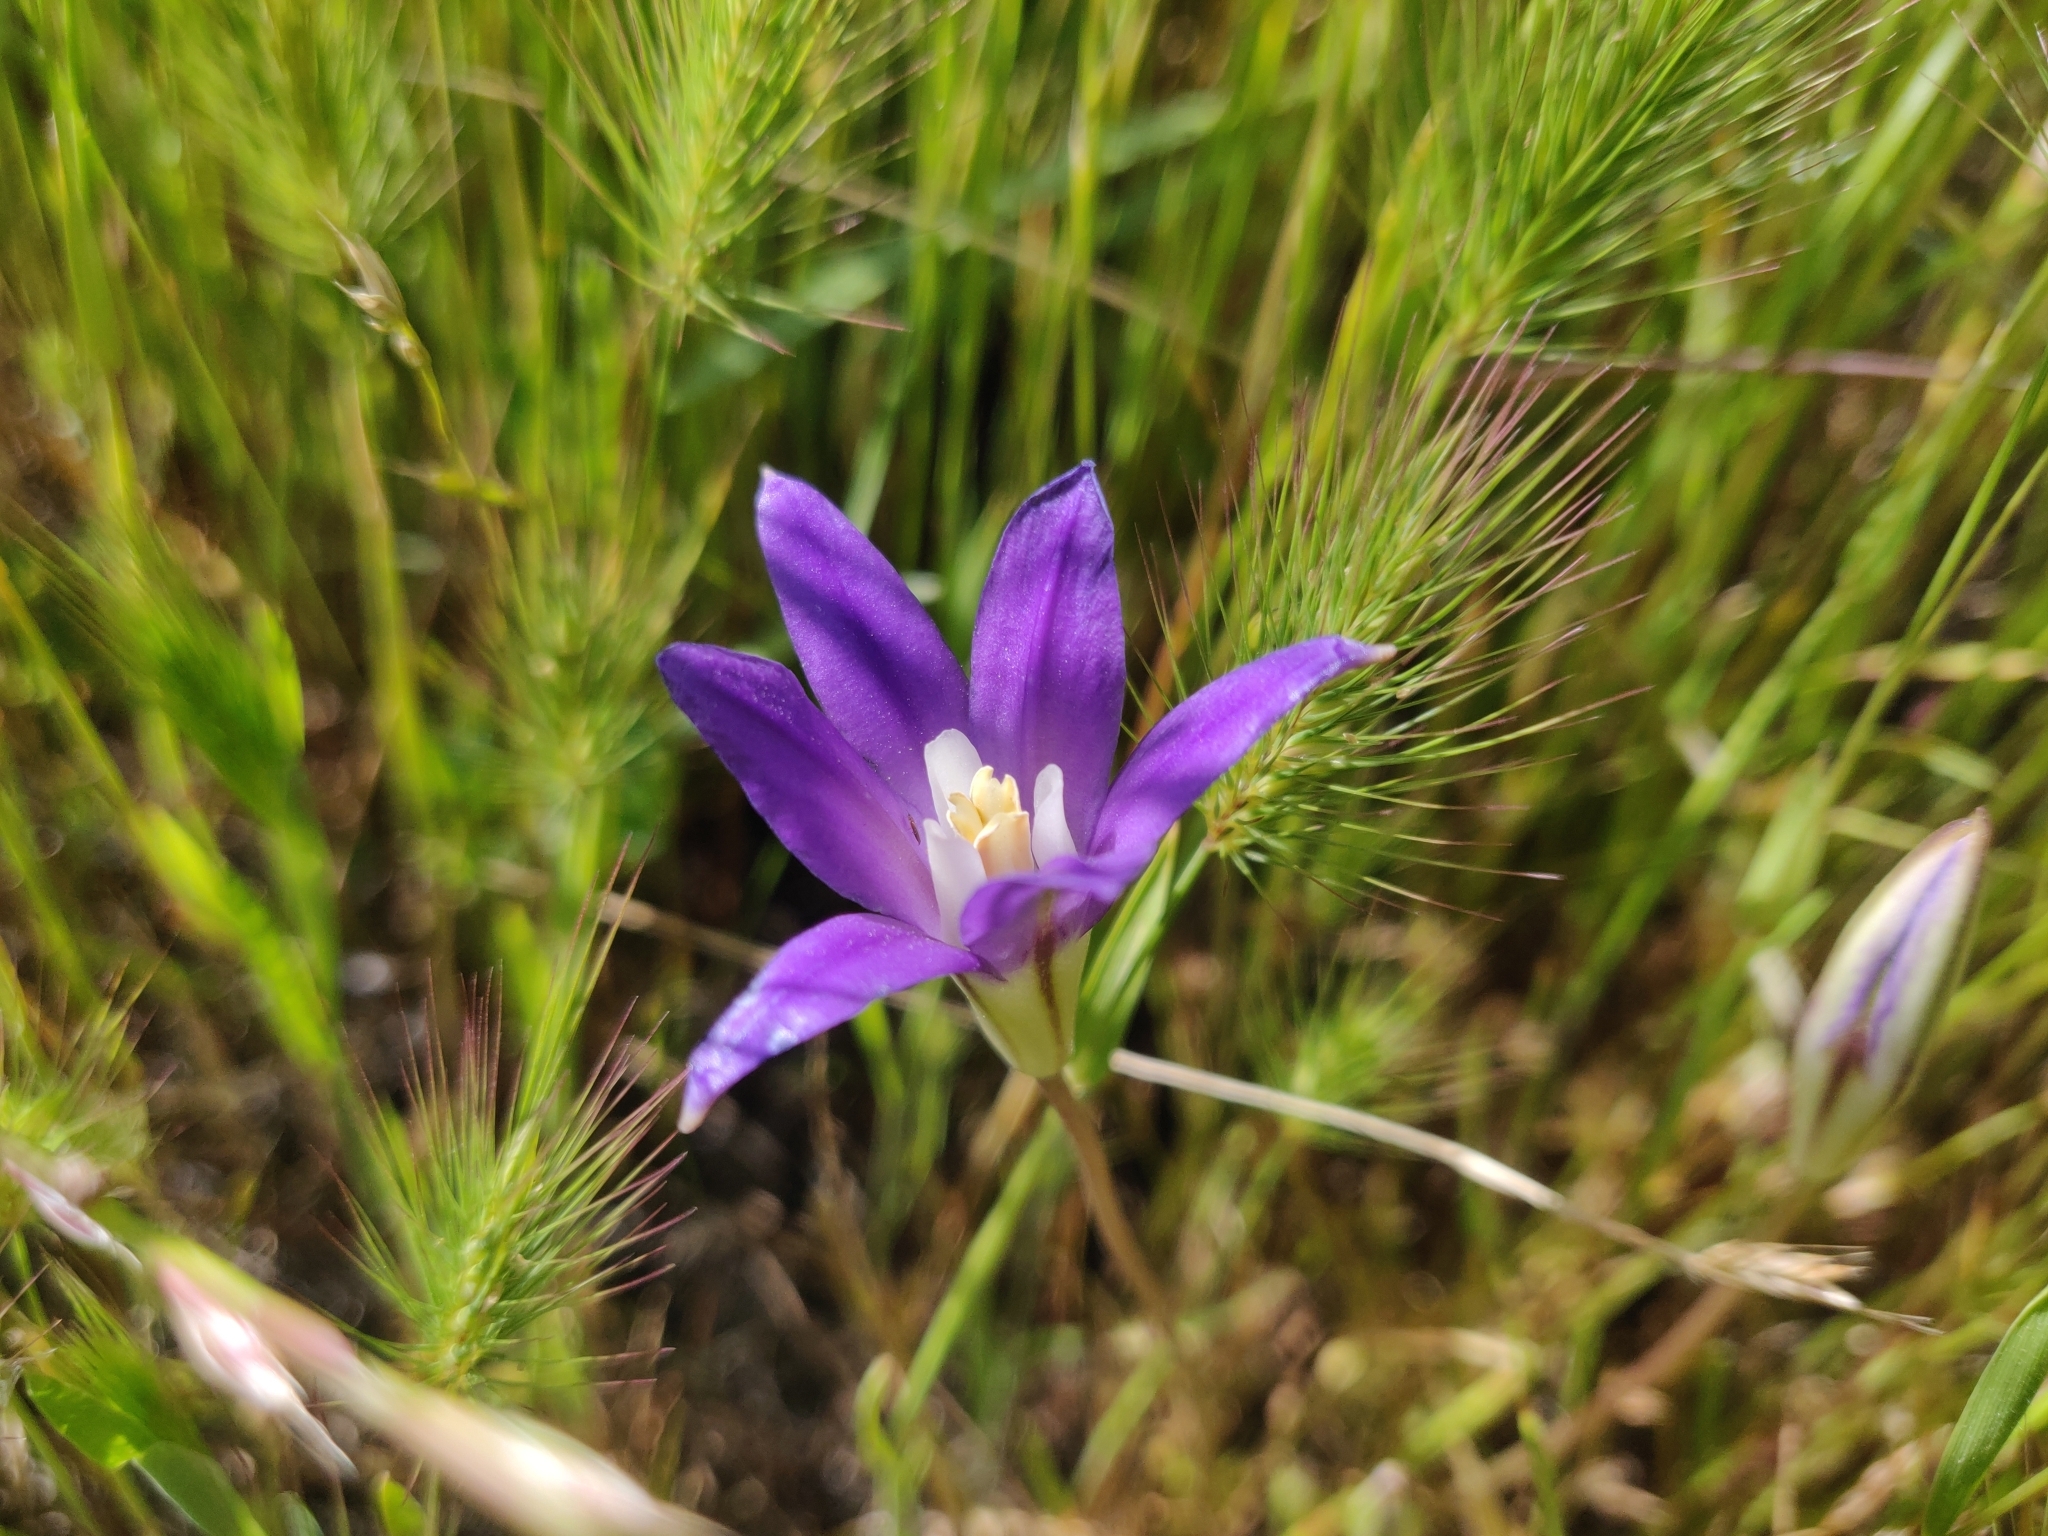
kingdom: Plantae
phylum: Tracheophyta
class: Liliopsida
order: Asparagales
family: Asparagaceae
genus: Brodiaea
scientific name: Brodiaea terrestris
